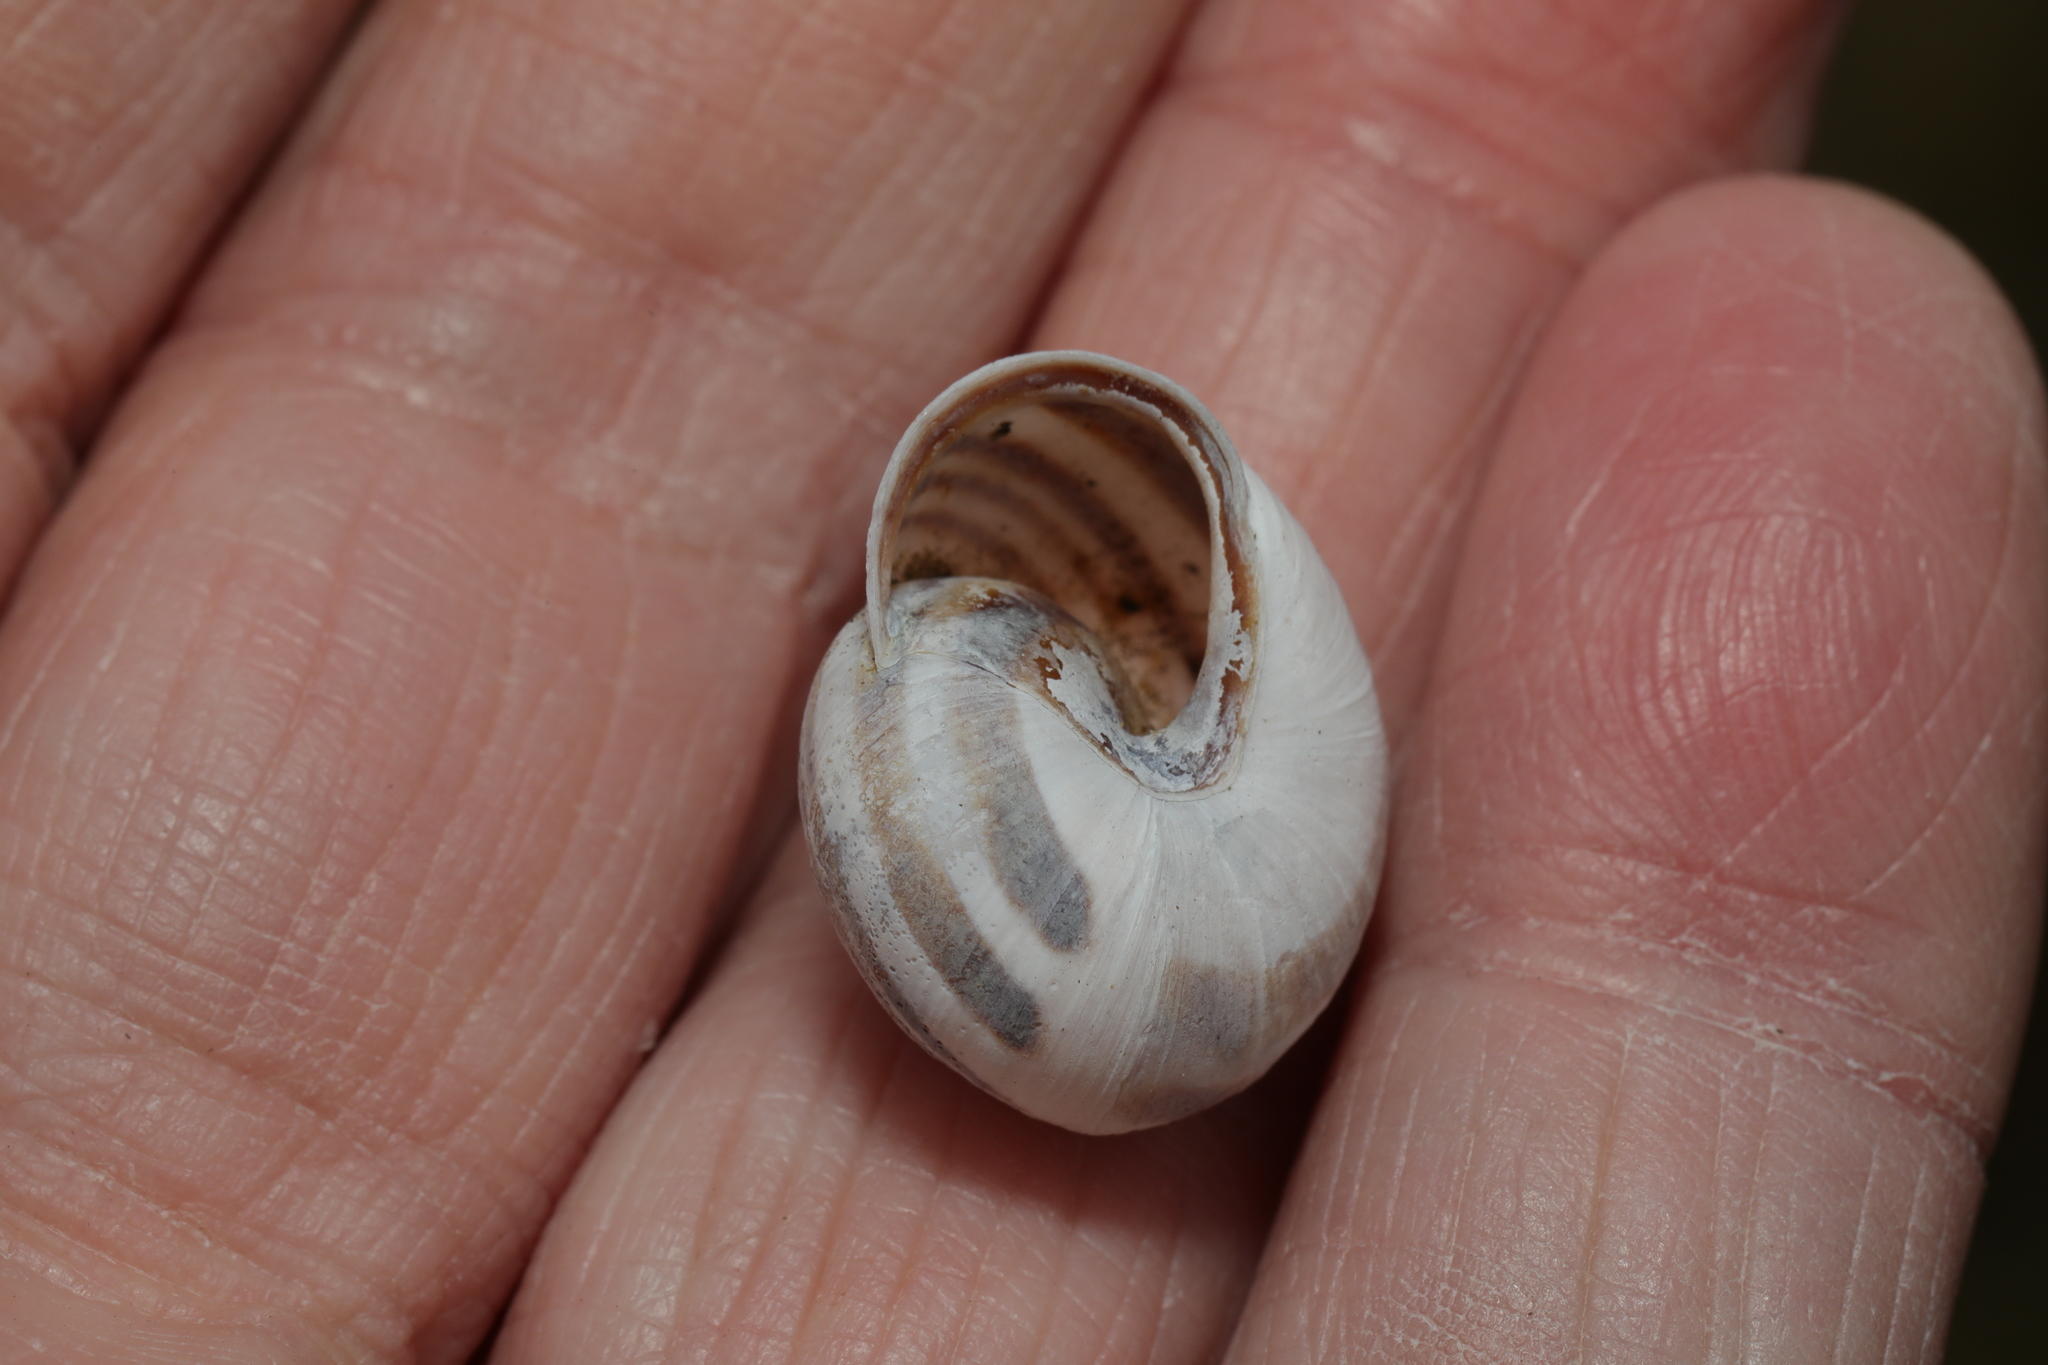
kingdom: Animalia
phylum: Mollusca
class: Gastropoda
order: Stylommatophora
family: Helicidae
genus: Cepaea
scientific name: Cepaea nemoralis
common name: Grovesnail
